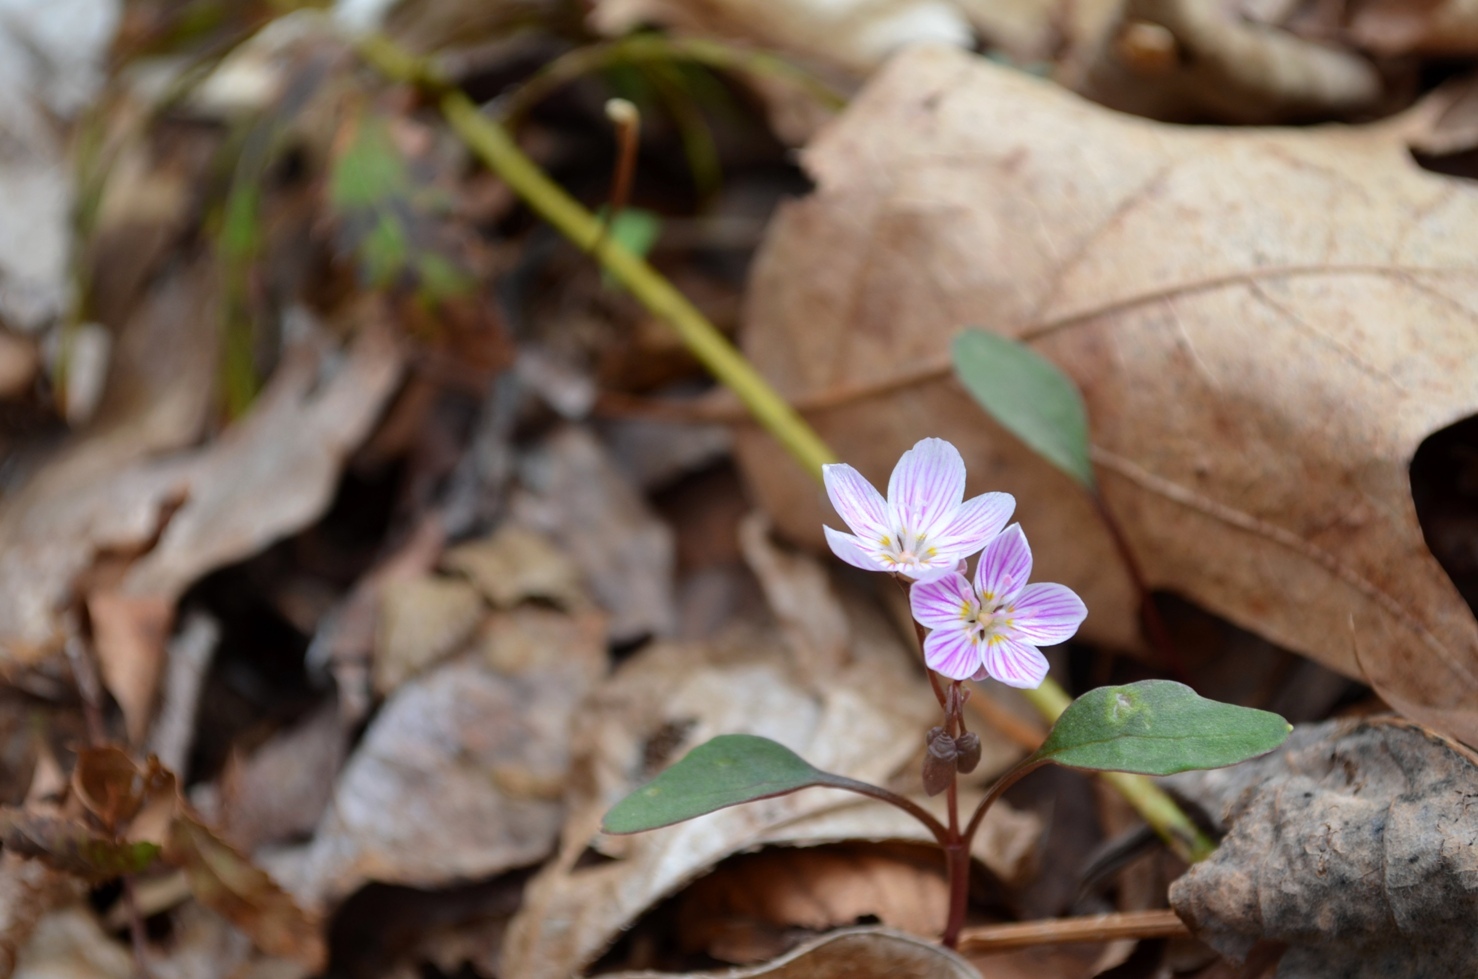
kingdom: Plantae
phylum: Tracheophyta
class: Magnoliopsida
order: Caryophyllales
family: Montiaceae
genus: Claytonia
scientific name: Claytonia caroliniana
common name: Carolina spring beauty
